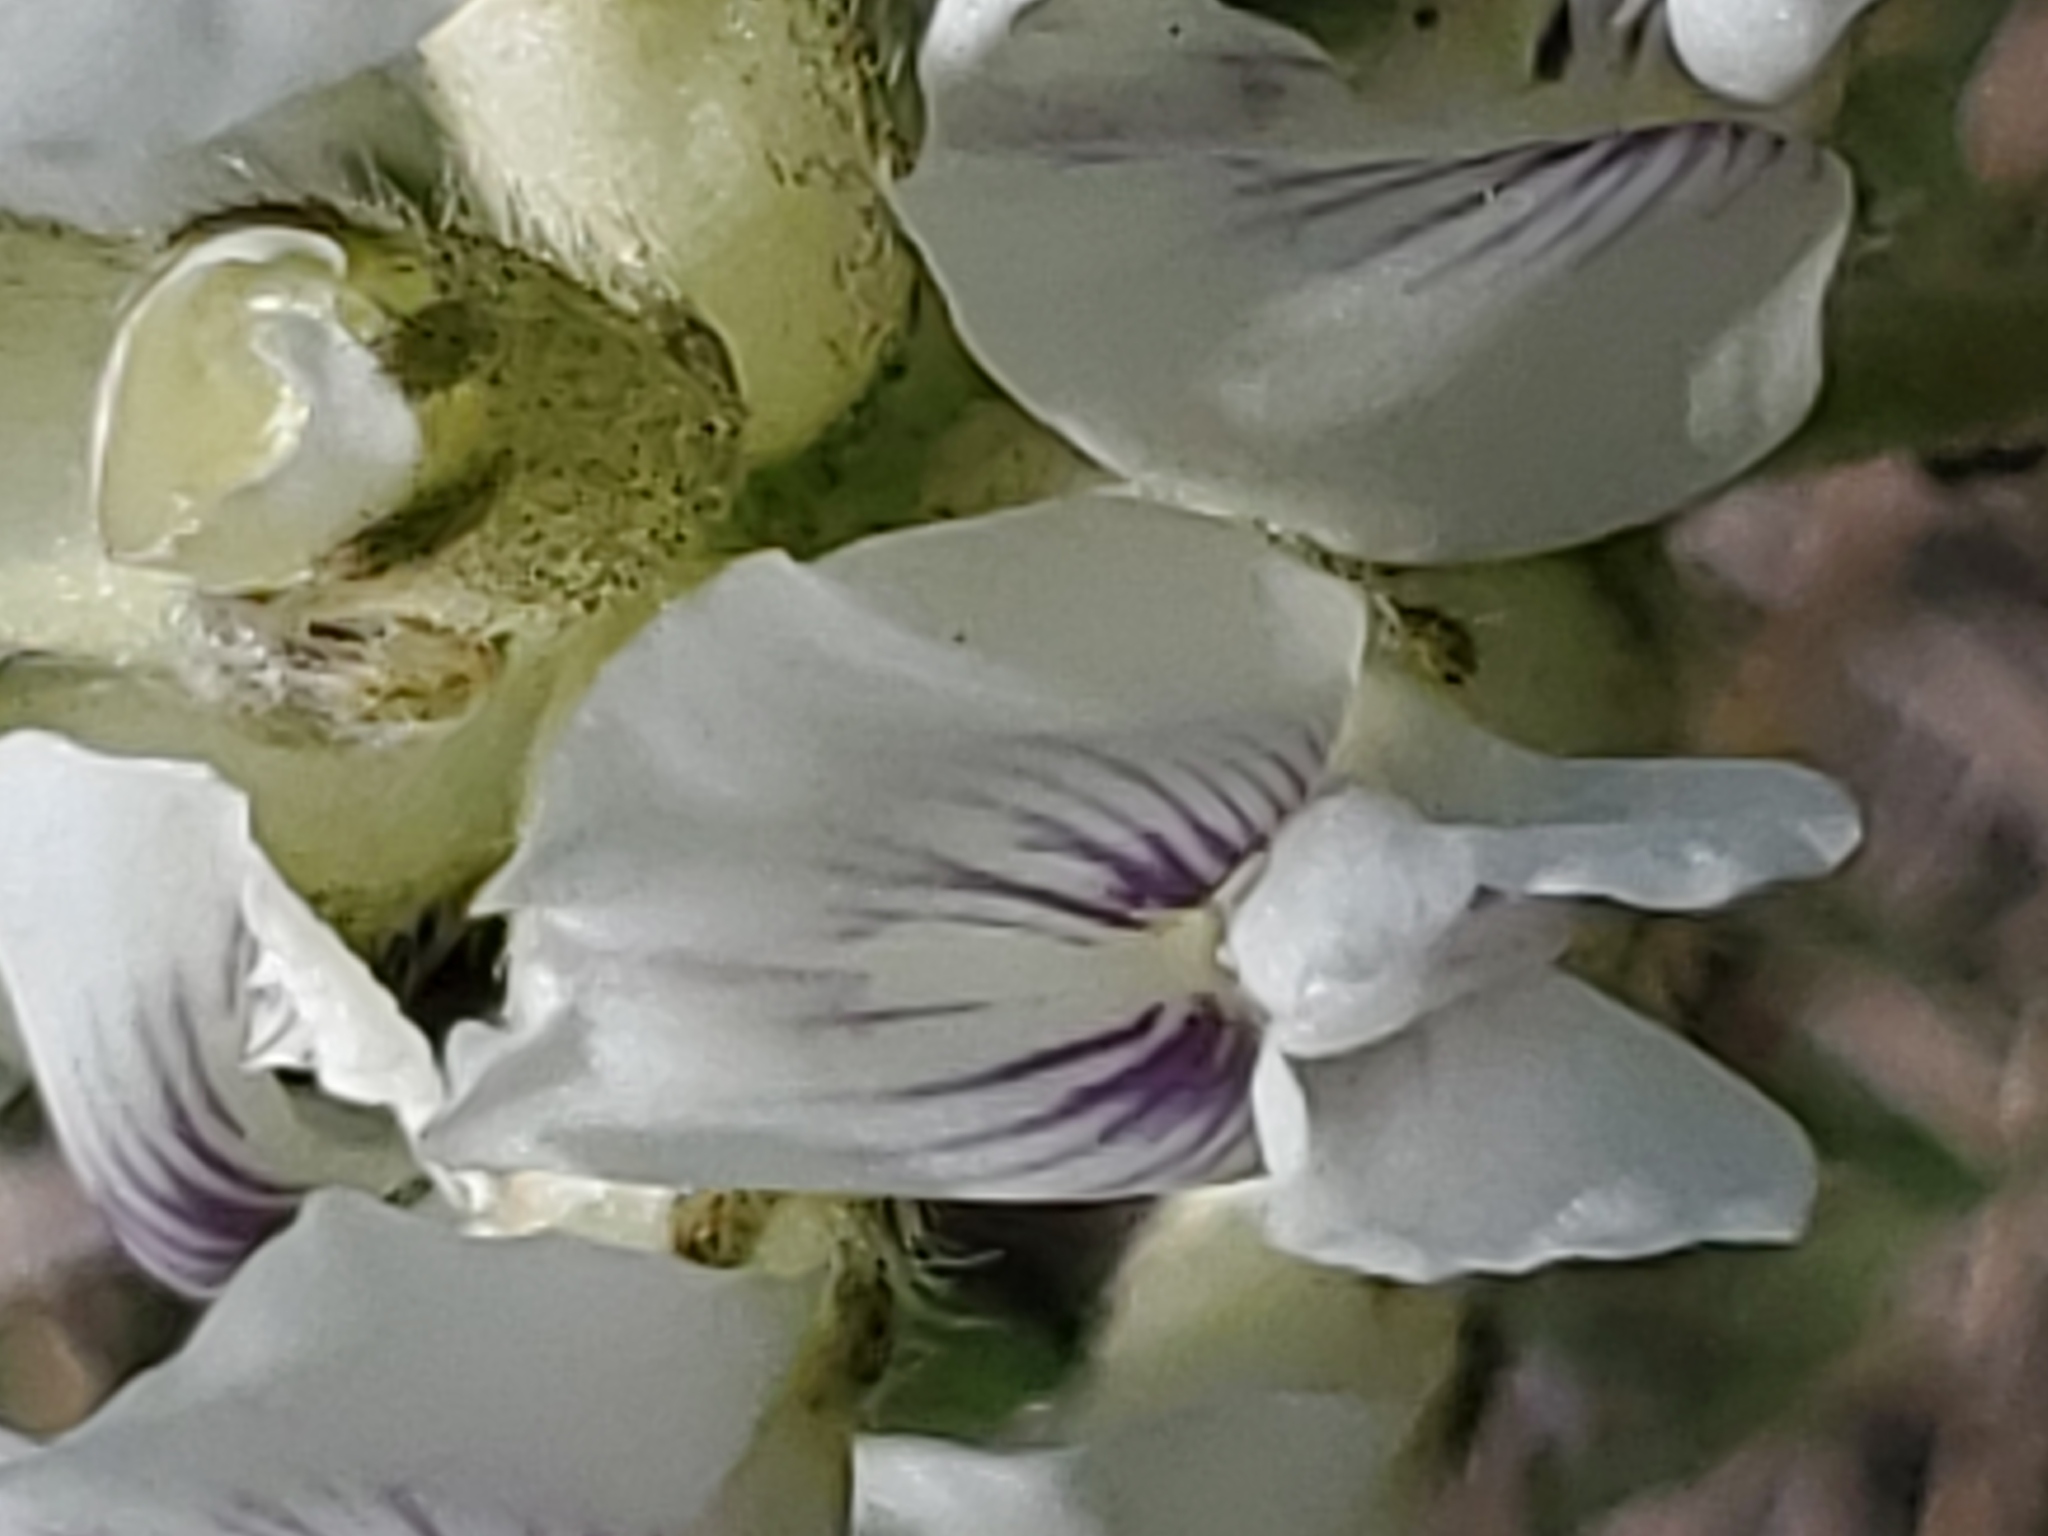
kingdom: Plantae
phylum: Tracheophyta
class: Magnoliopsida
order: Fabales
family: Fabaceae
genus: Oxytropis
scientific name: Oxytropis sericea
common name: Silky locoweed
